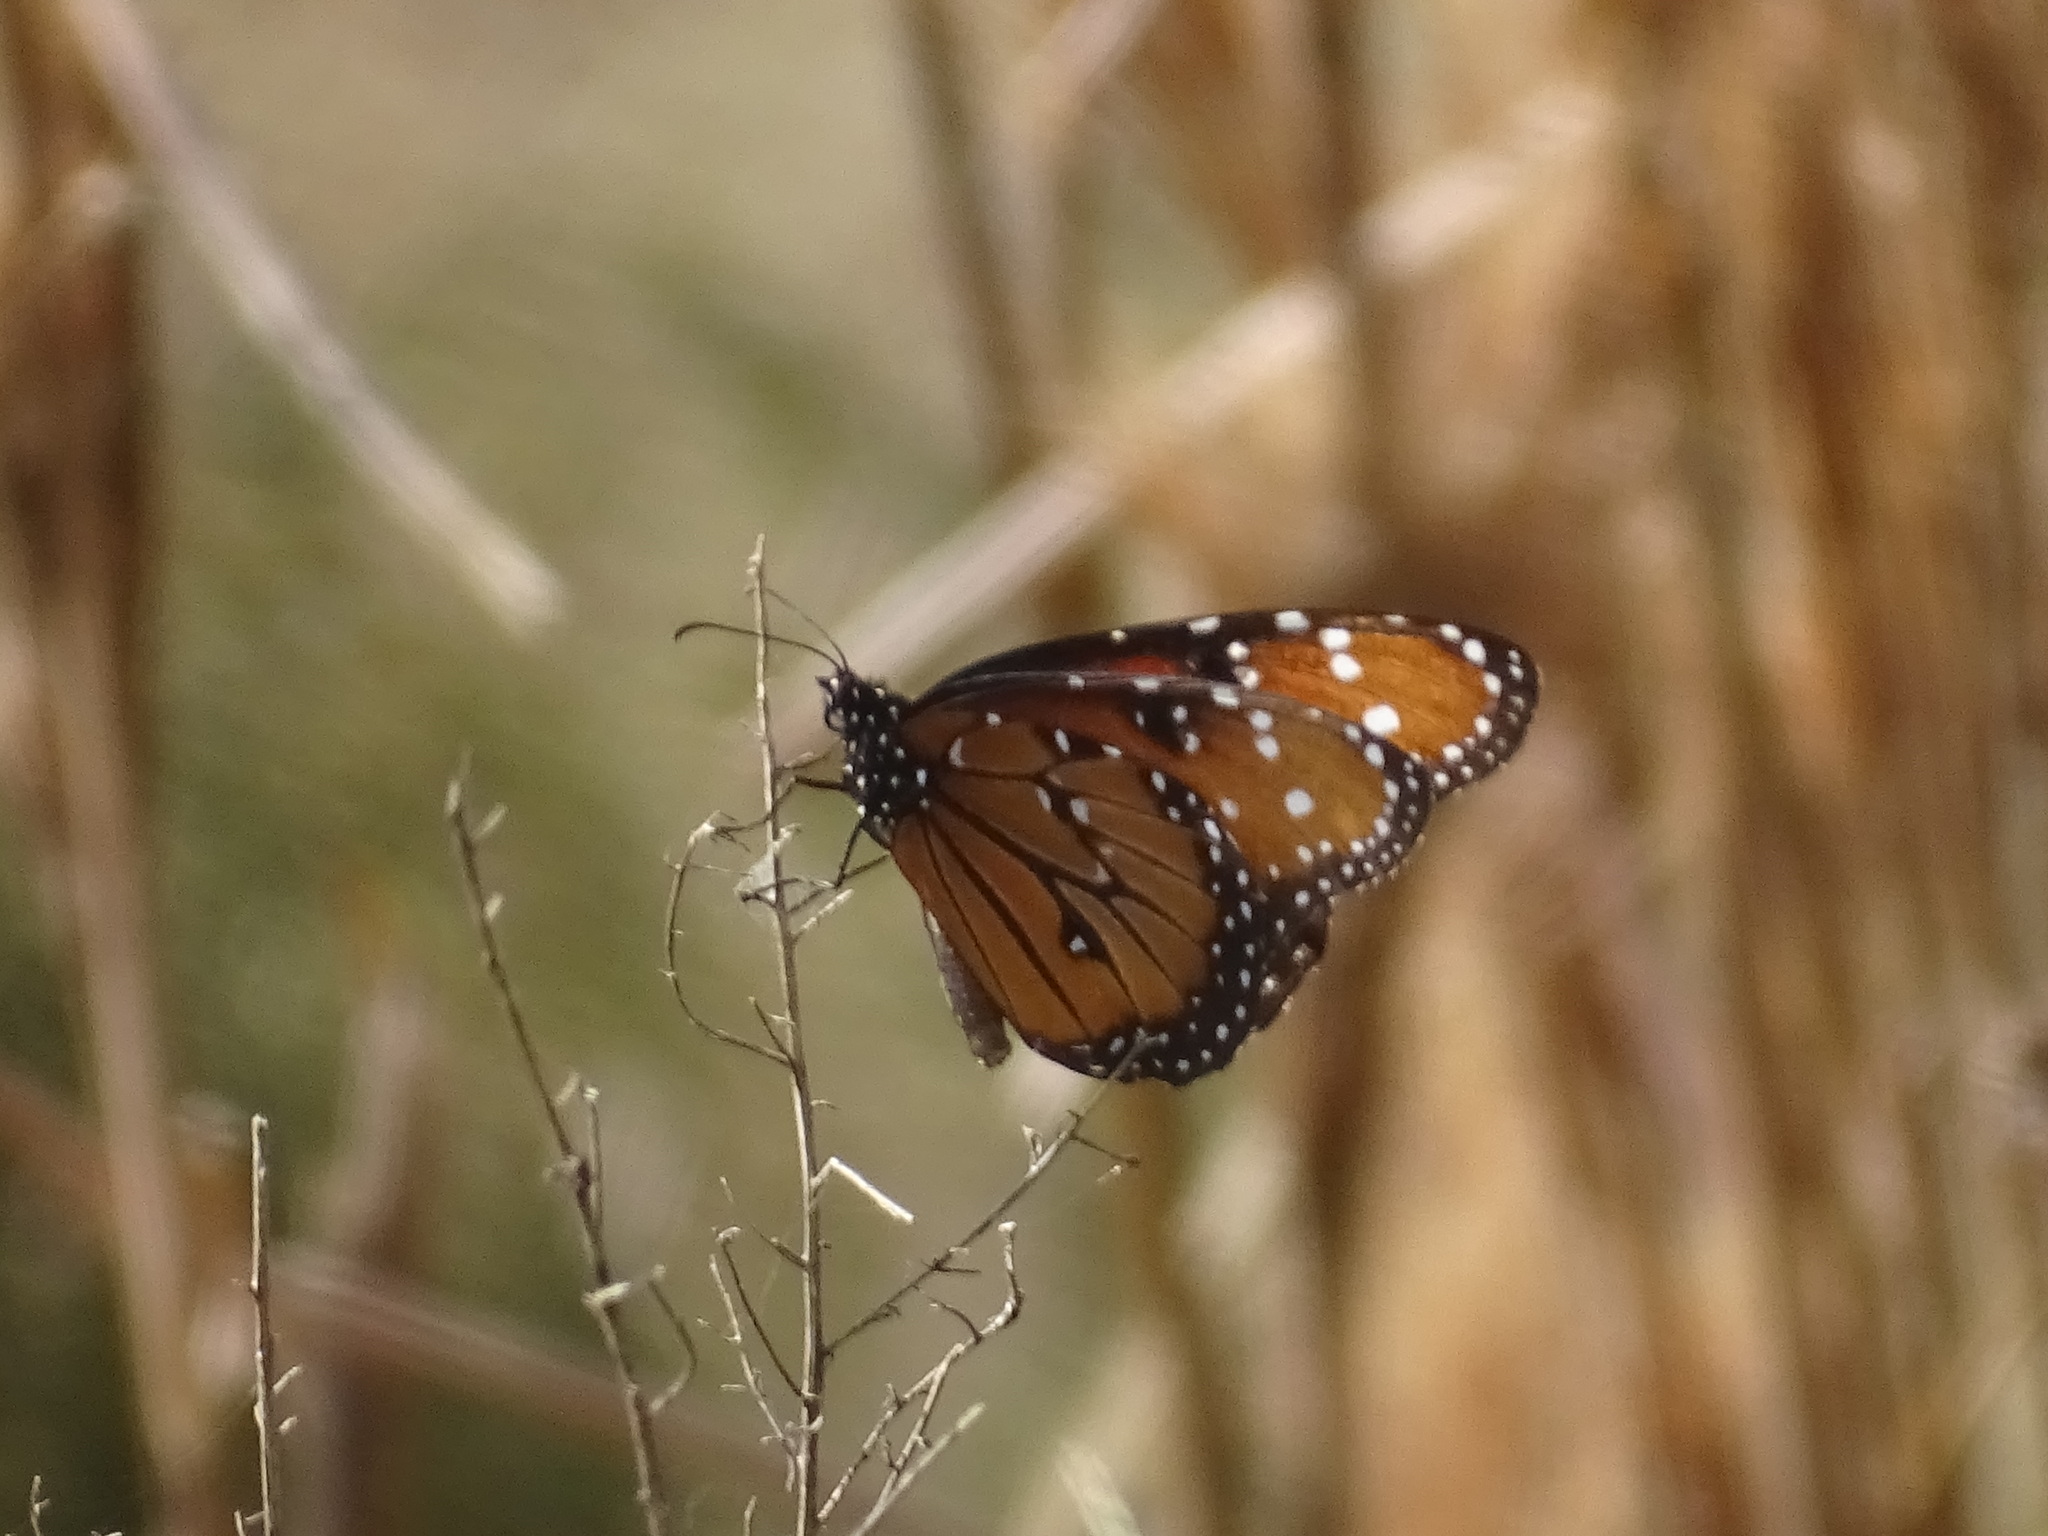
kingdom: Animalia
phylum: Arthropoda
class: Insecta
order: Lepidoptera
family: Nymphalidae
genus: Danaus
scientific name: Danaus gilippus
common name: Queen
